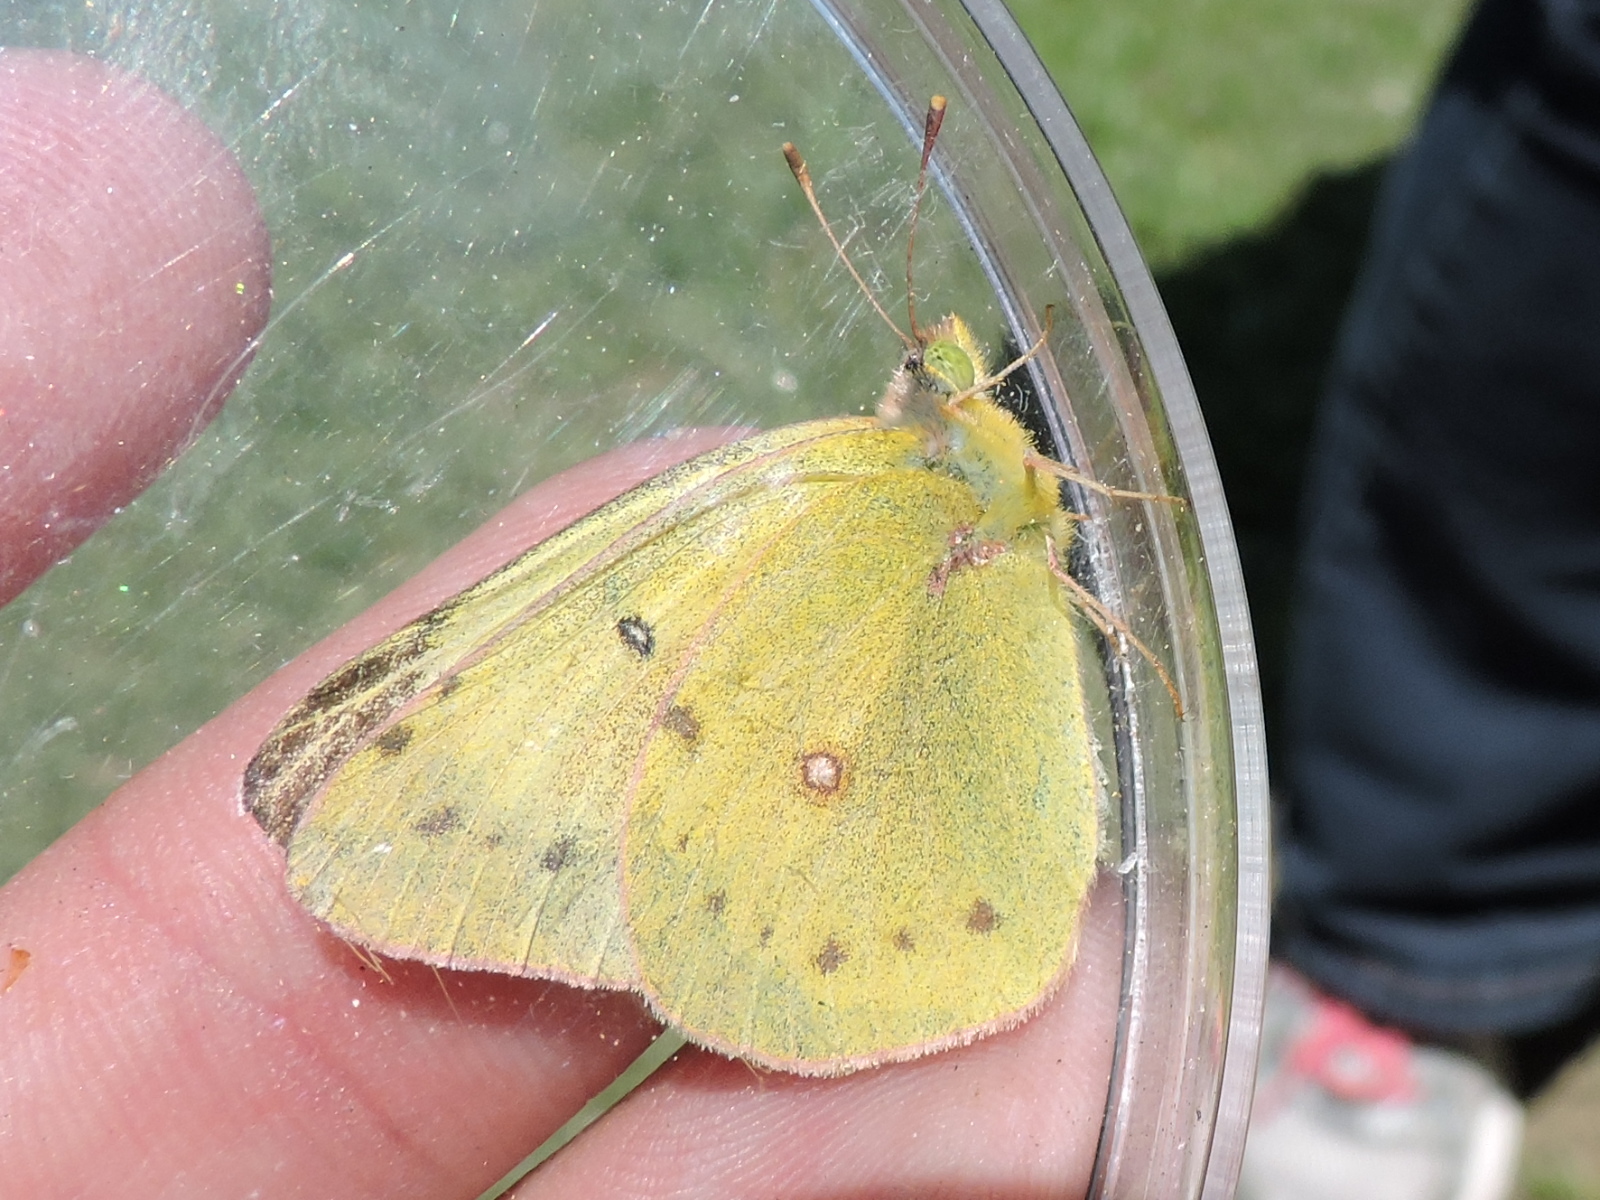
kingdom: Animalia
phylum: Arthropoda
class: Insecta
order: Lepidoptera
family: Pieridae
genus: Colias
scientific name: Colias eurytheme
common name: Alfalfa butterfly
